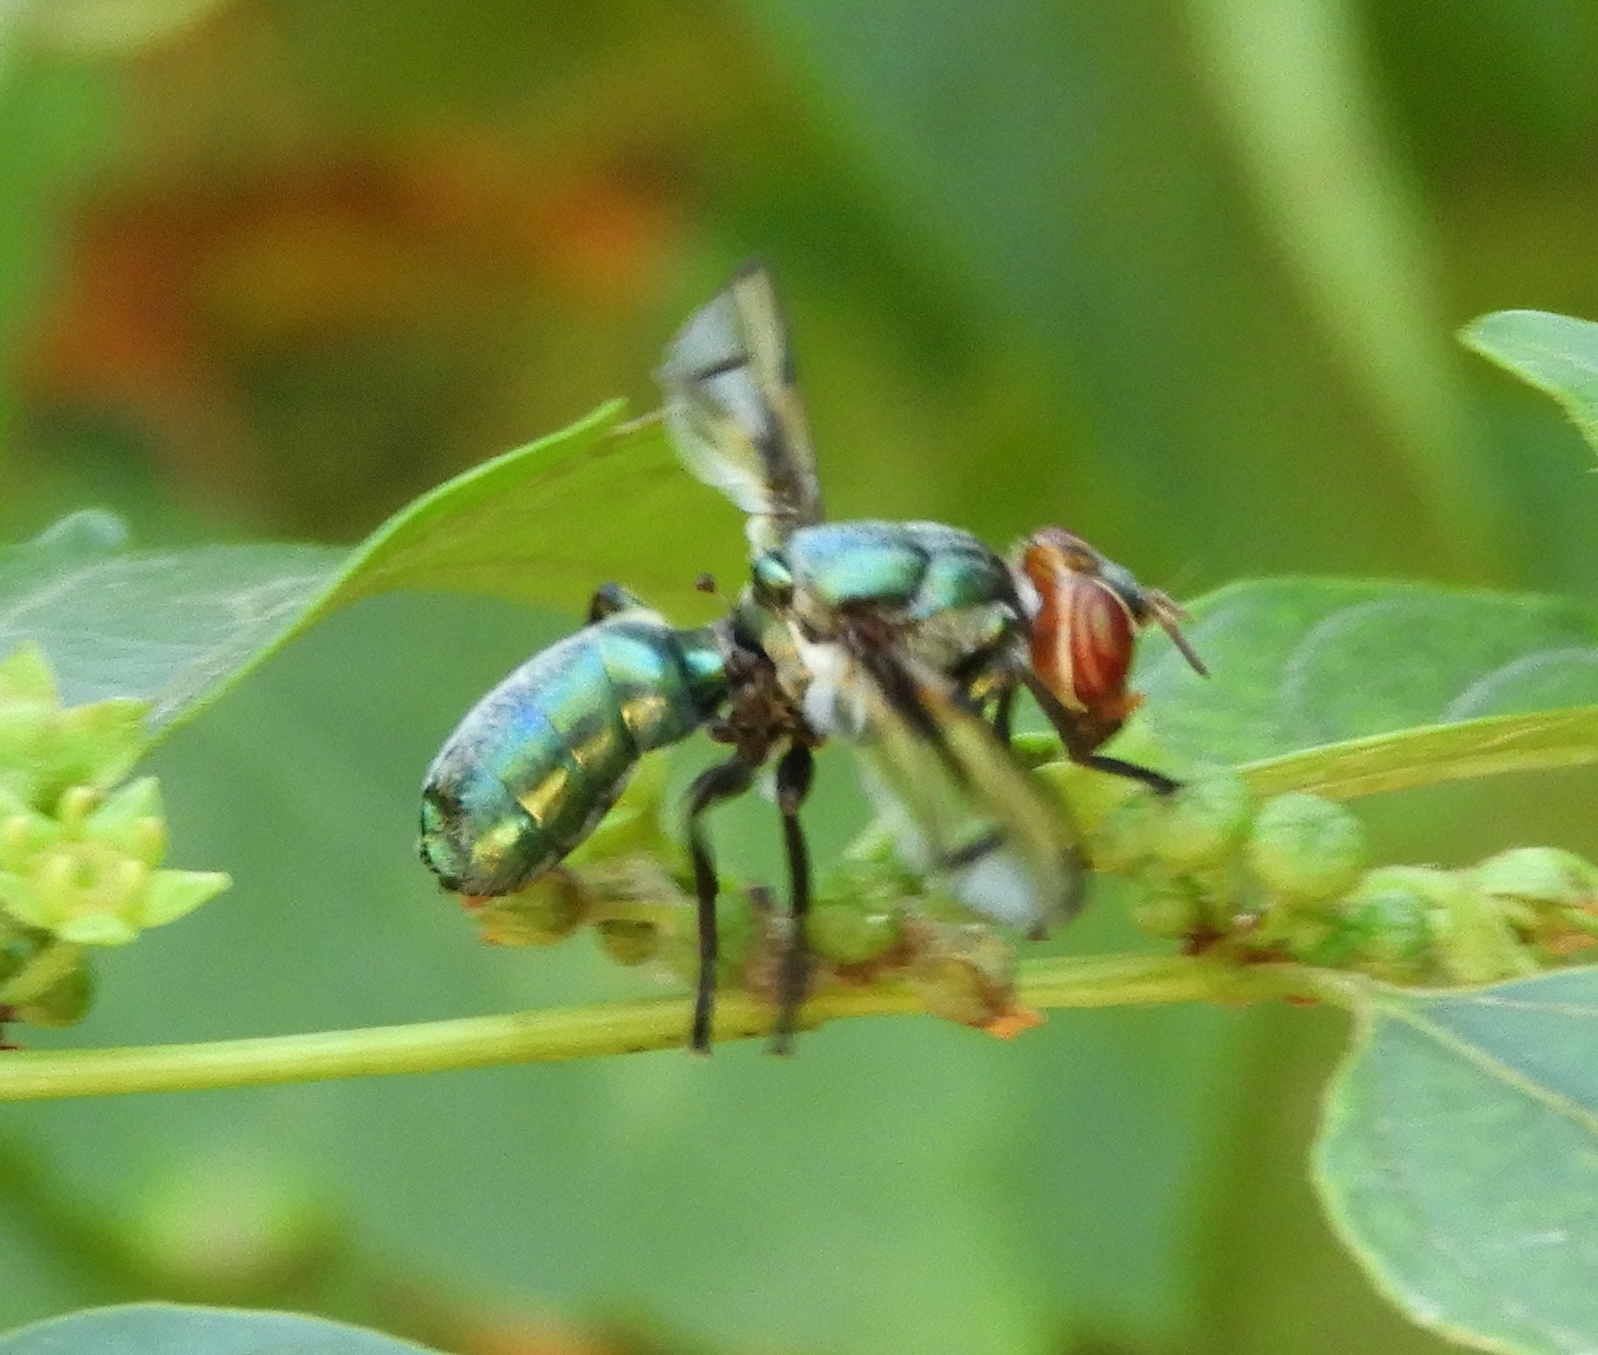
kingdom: Animalia
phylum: Arthropoda
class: Insecta
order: Diptera
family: Platystomatidae
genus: Senopterina
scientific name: Senopterina
